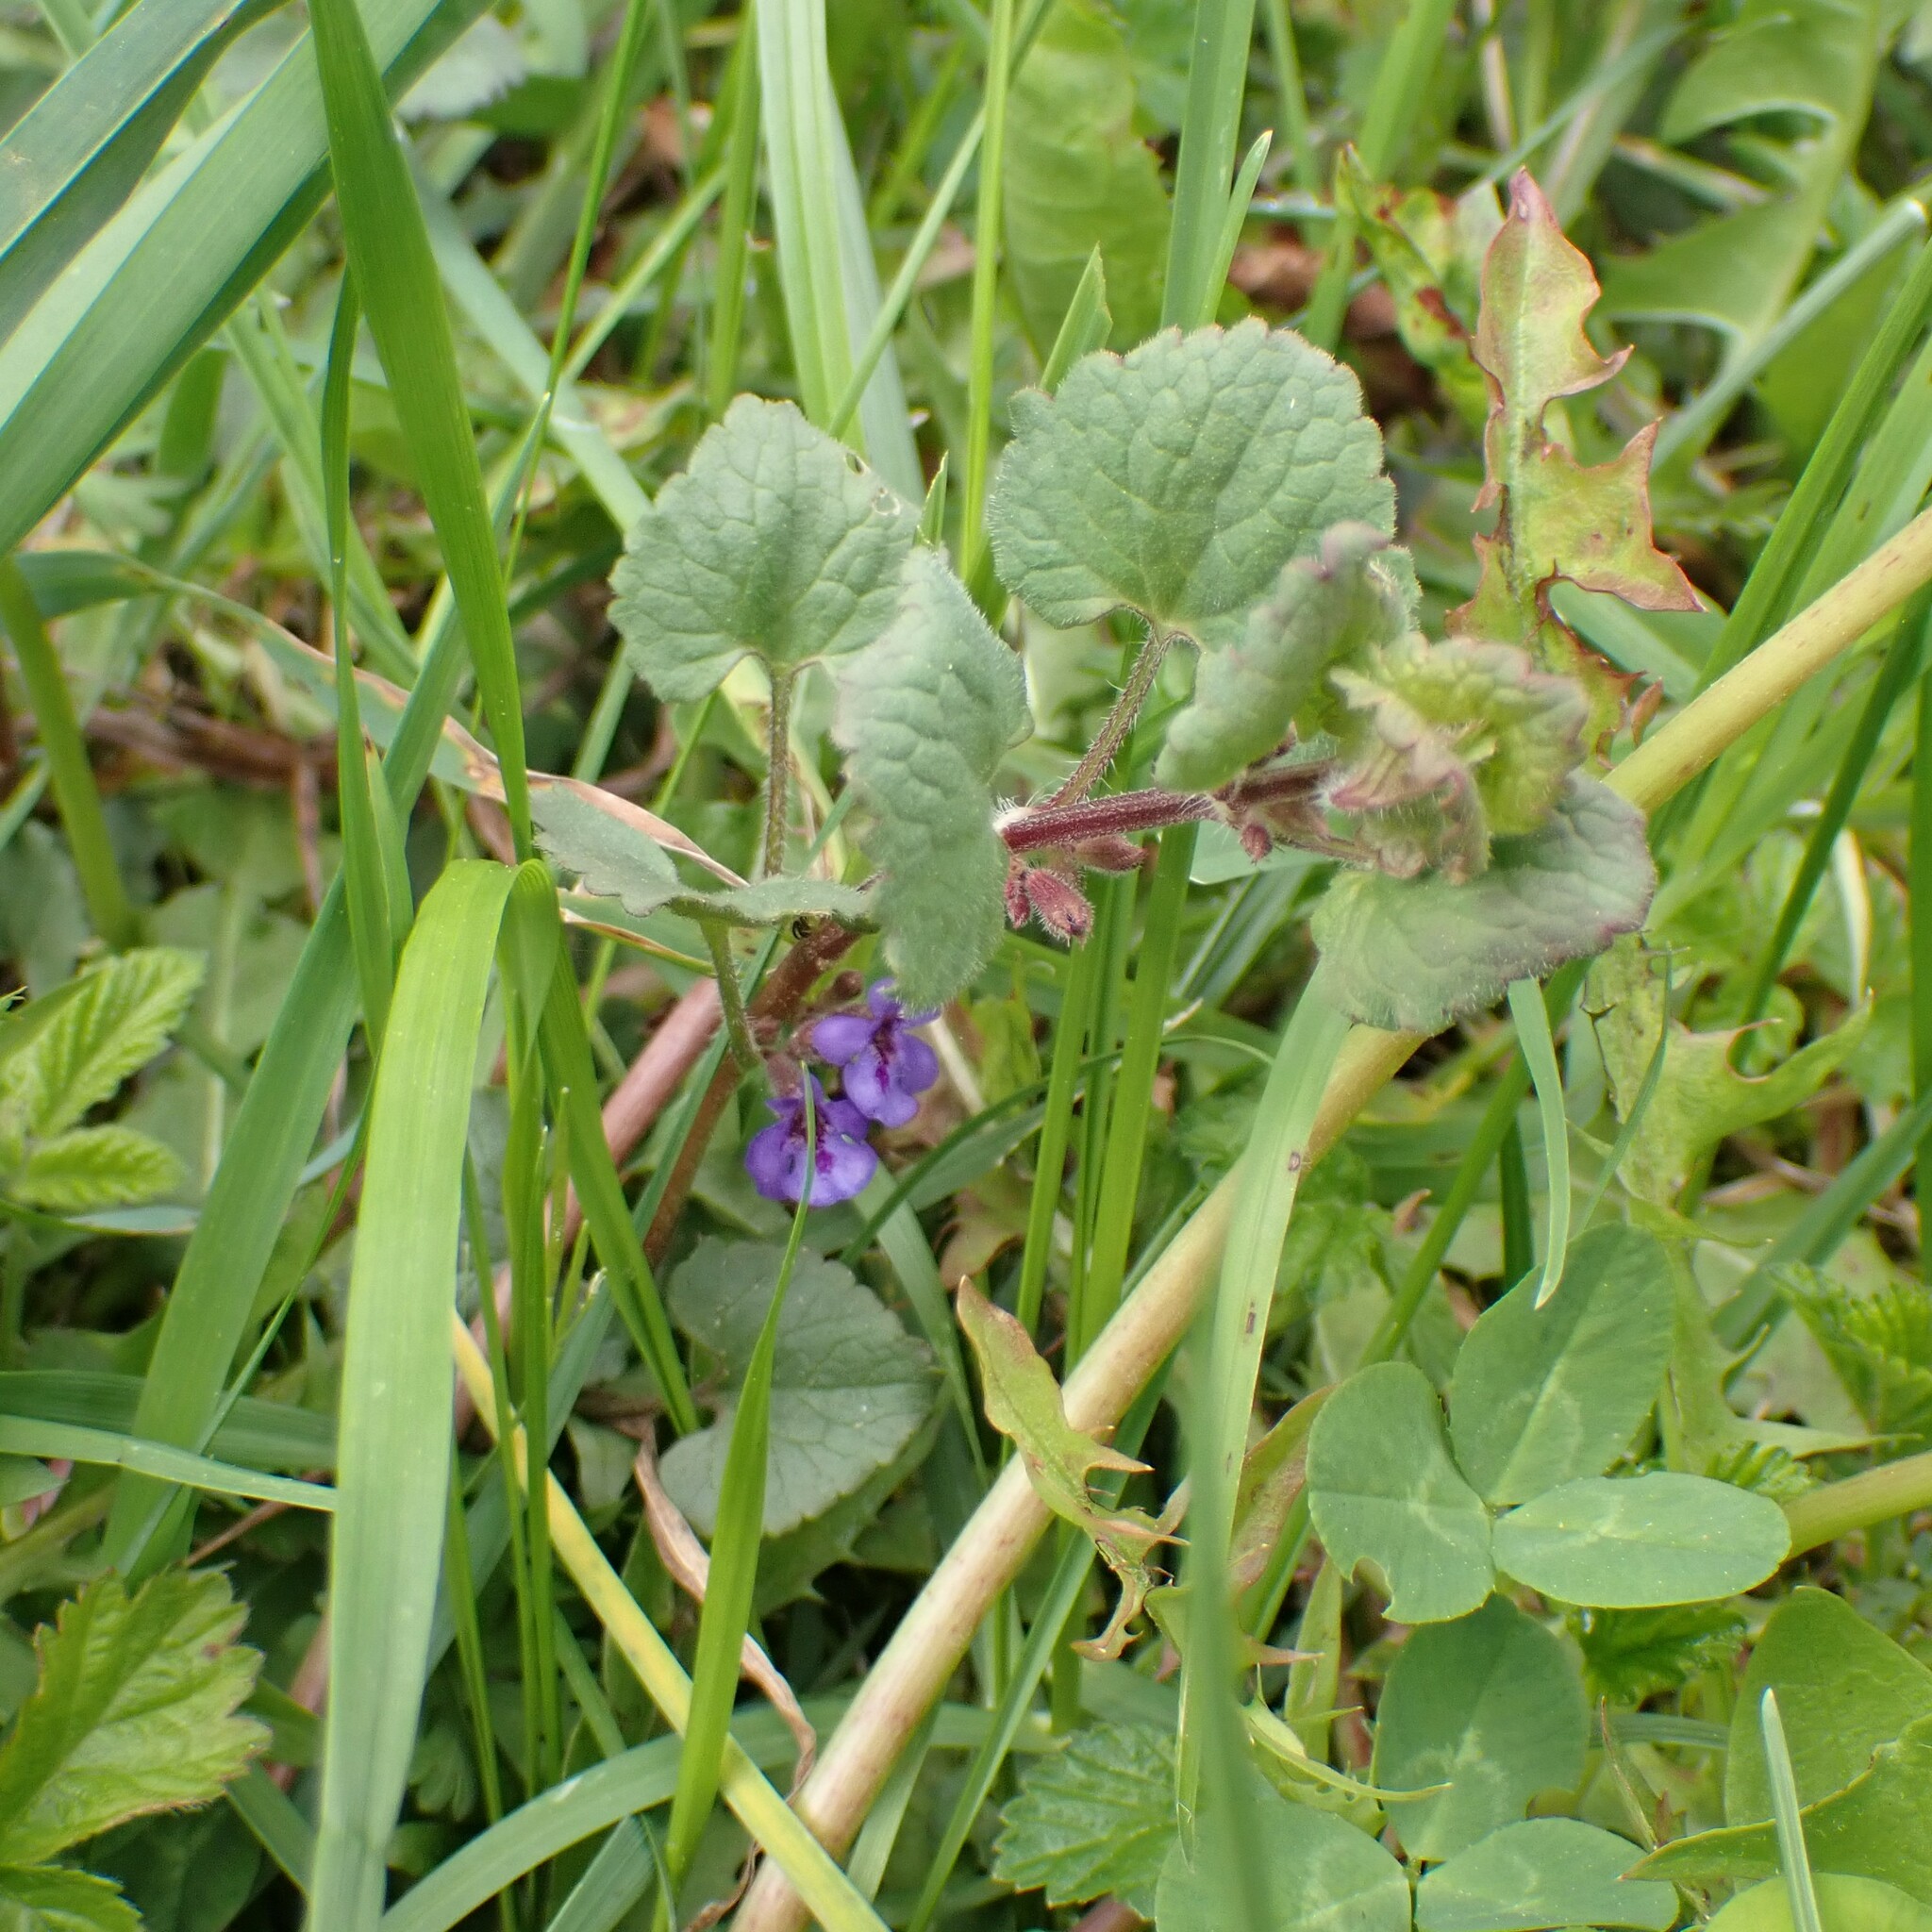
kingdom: Plantae
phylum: Tracheophyta
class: Magnoliopsida
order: Lamiales
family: Lamiaceae
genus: Glechoma
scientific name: Glechoma hederacea
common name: Ground ivy
